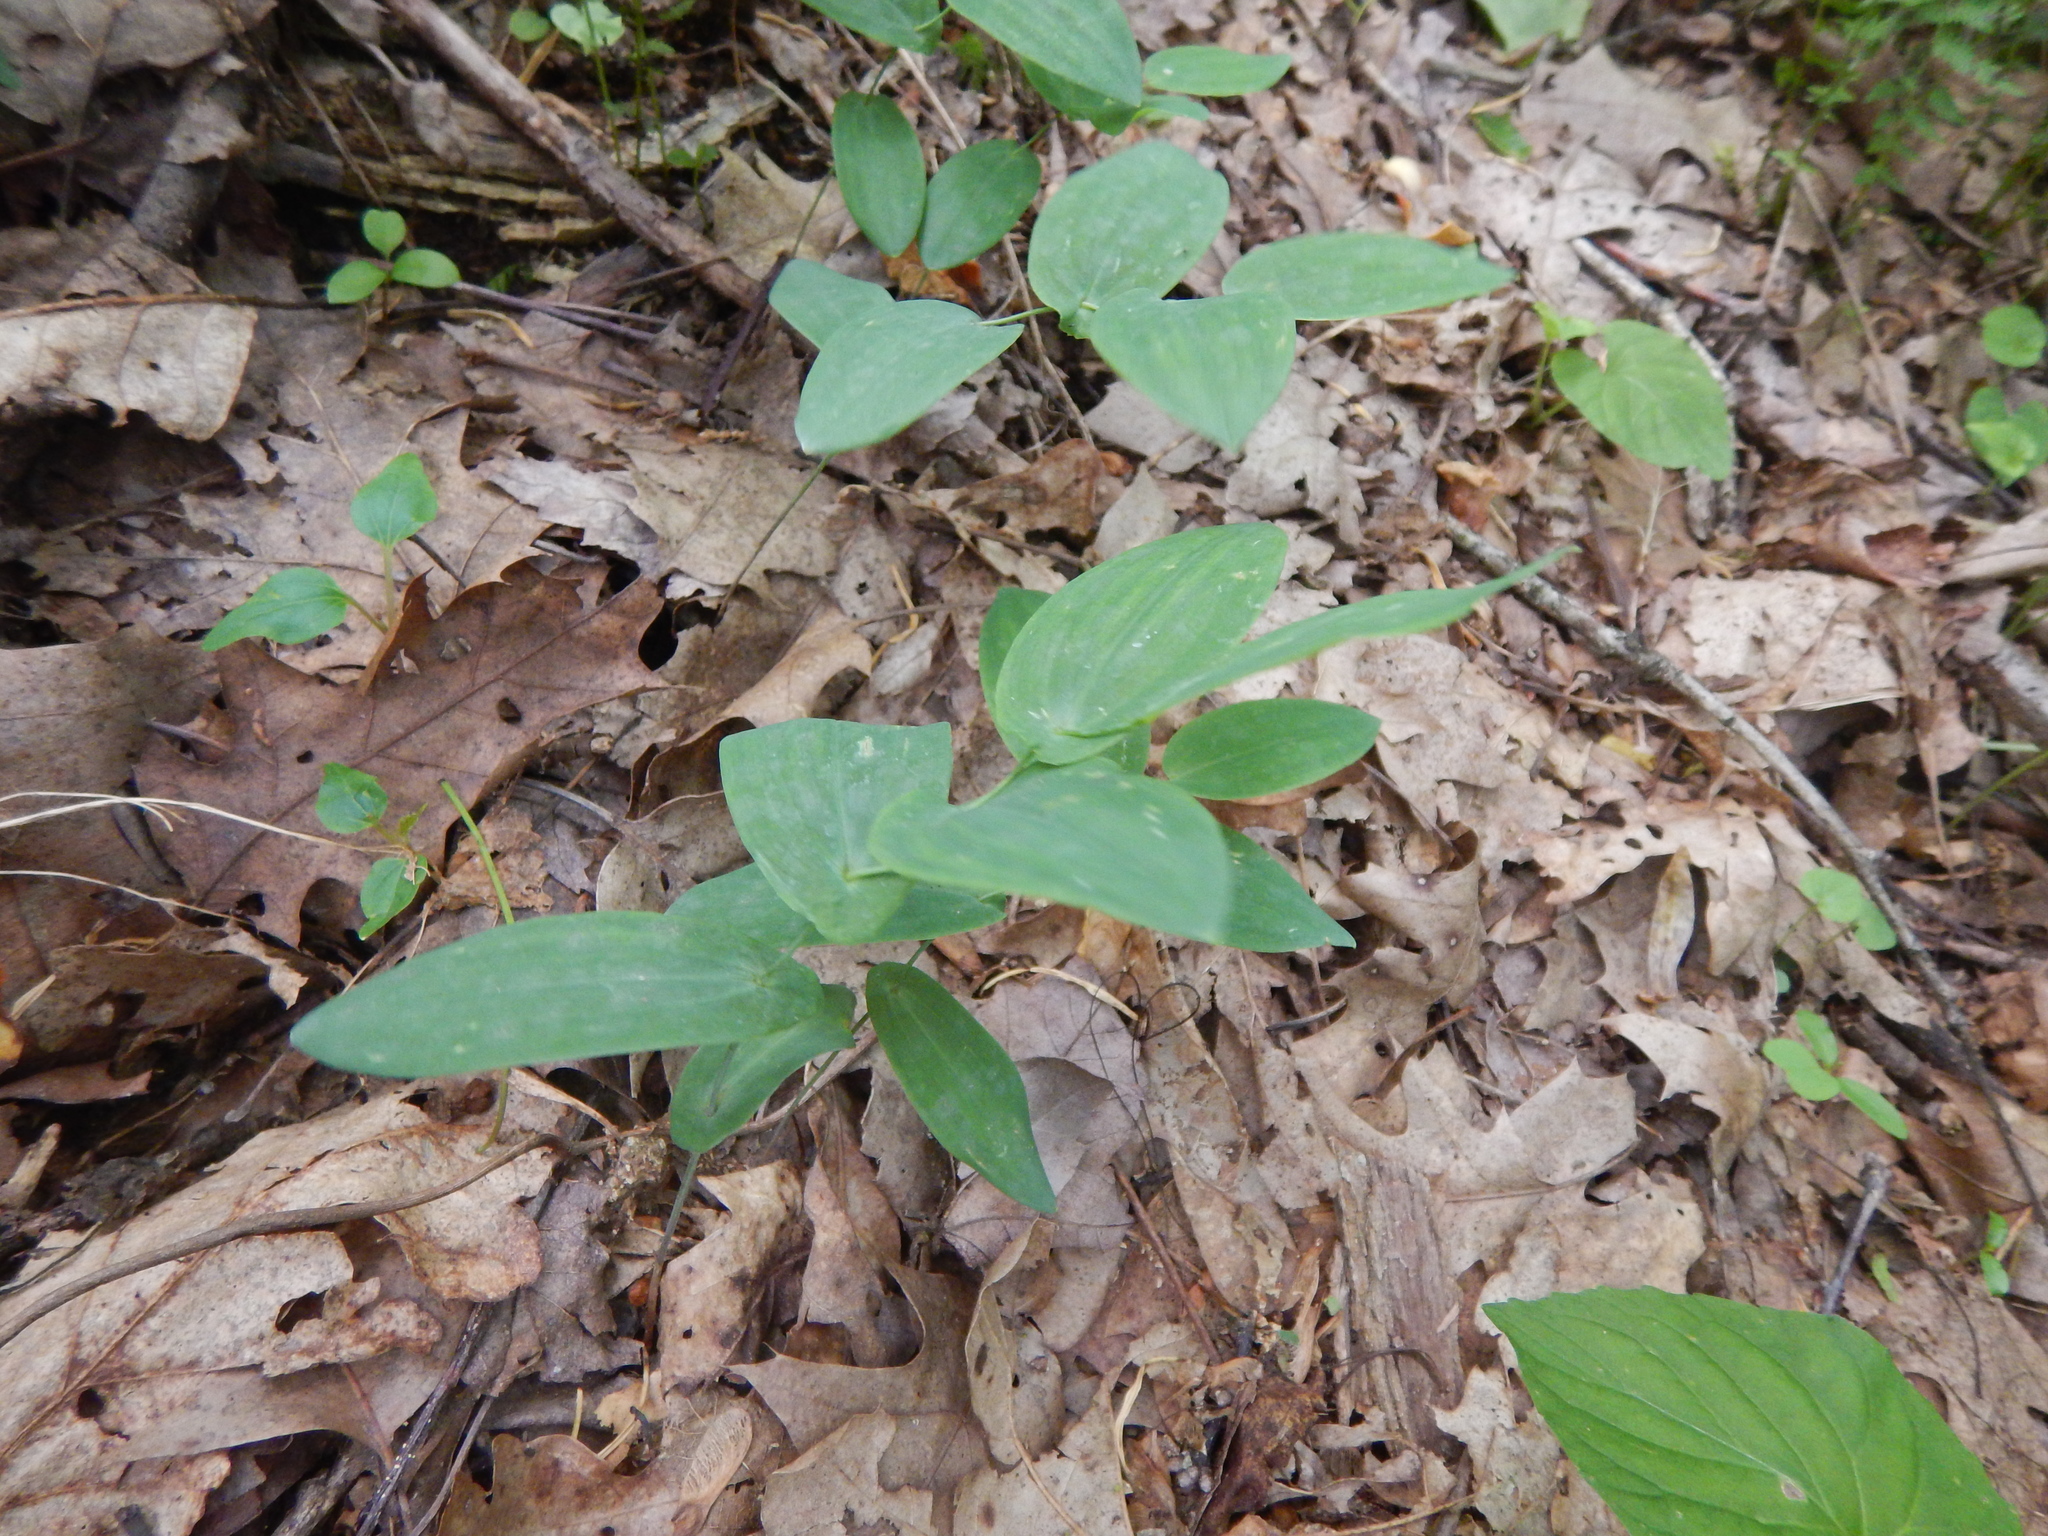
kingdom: Plantae
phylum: Tracheophyta
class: Liliopsida
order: Liliales
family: Colchicaceae
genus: Uvularia
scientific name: Uvularia perfoliata
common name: Perfoliate bellwort
